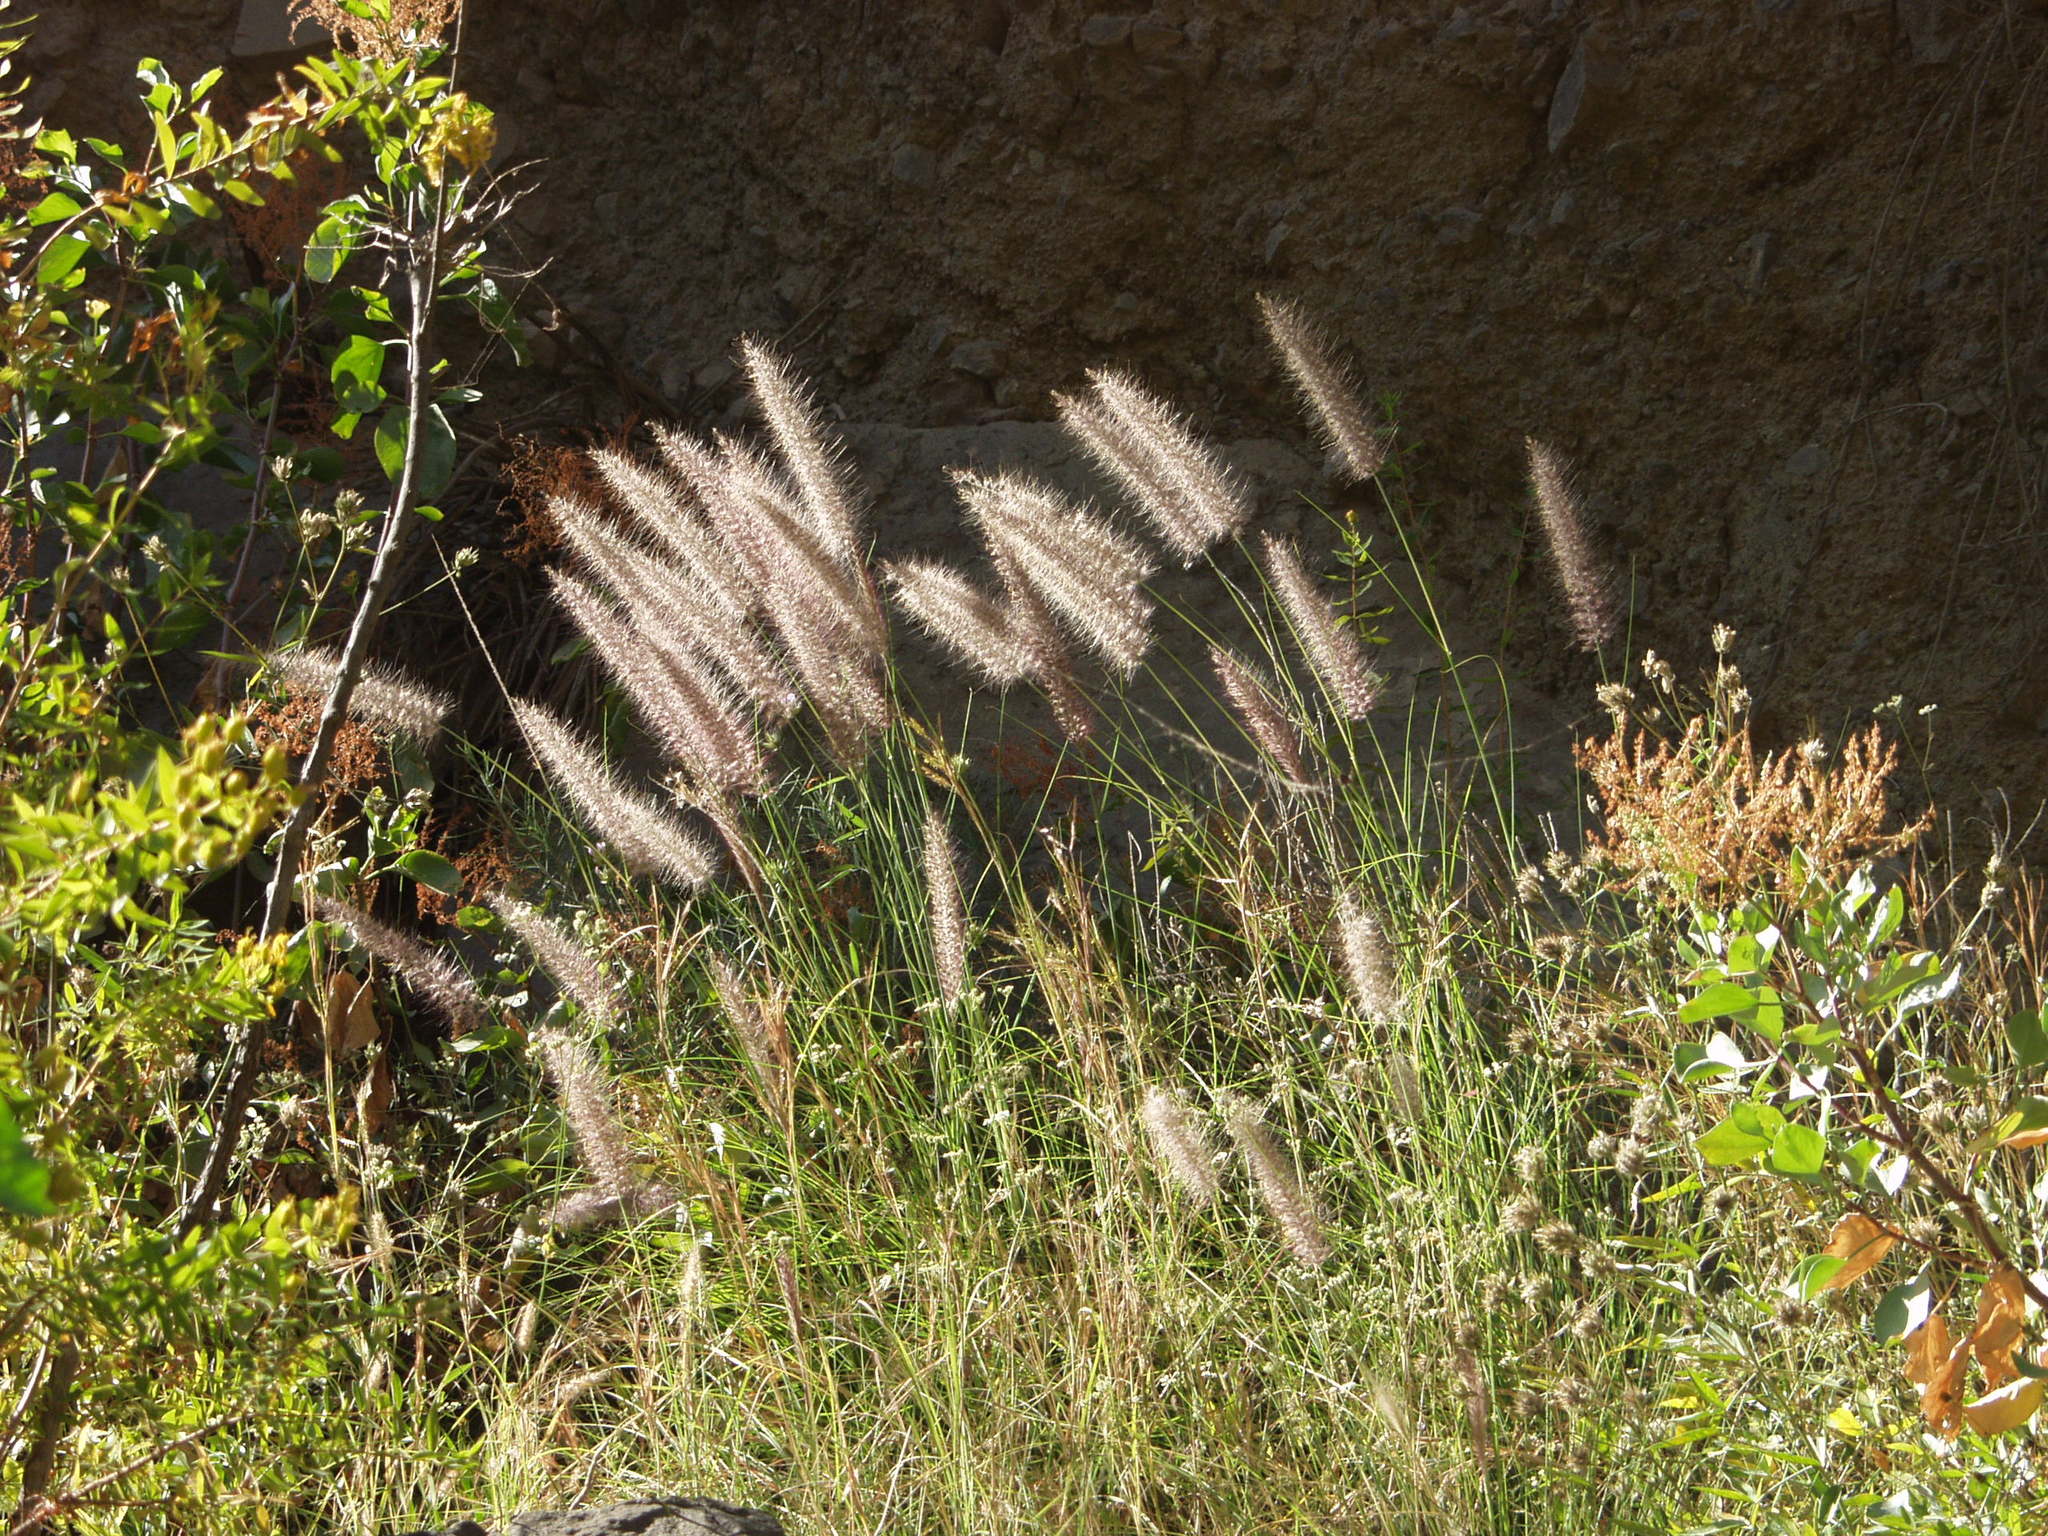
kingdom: Plantae
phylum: Tracheophyta
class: Liliopsida
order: Poales
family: Poaceae
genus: Cenchrus
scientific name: Cenchrus setaceus
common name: Crimson fountaingrass
